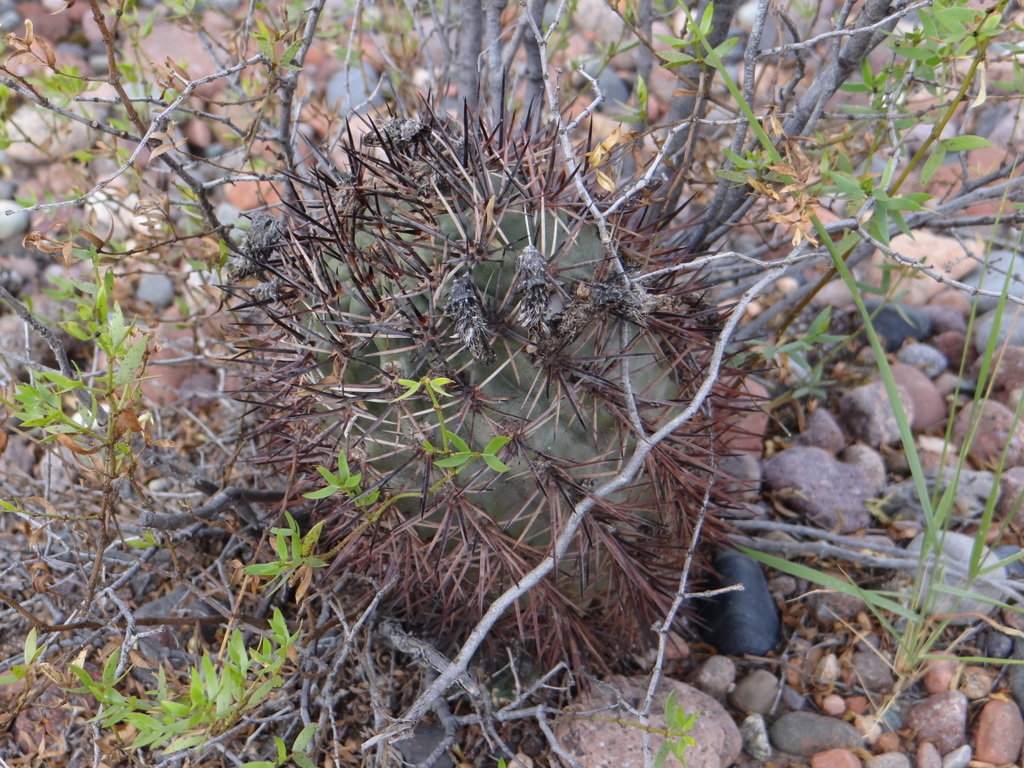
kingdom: Plantae
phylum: Tracheophyta
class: Magnoliopsida
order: Caryophyllales
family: Cactaceae
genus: Eriosyce
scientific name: Eriosyce strausiana
